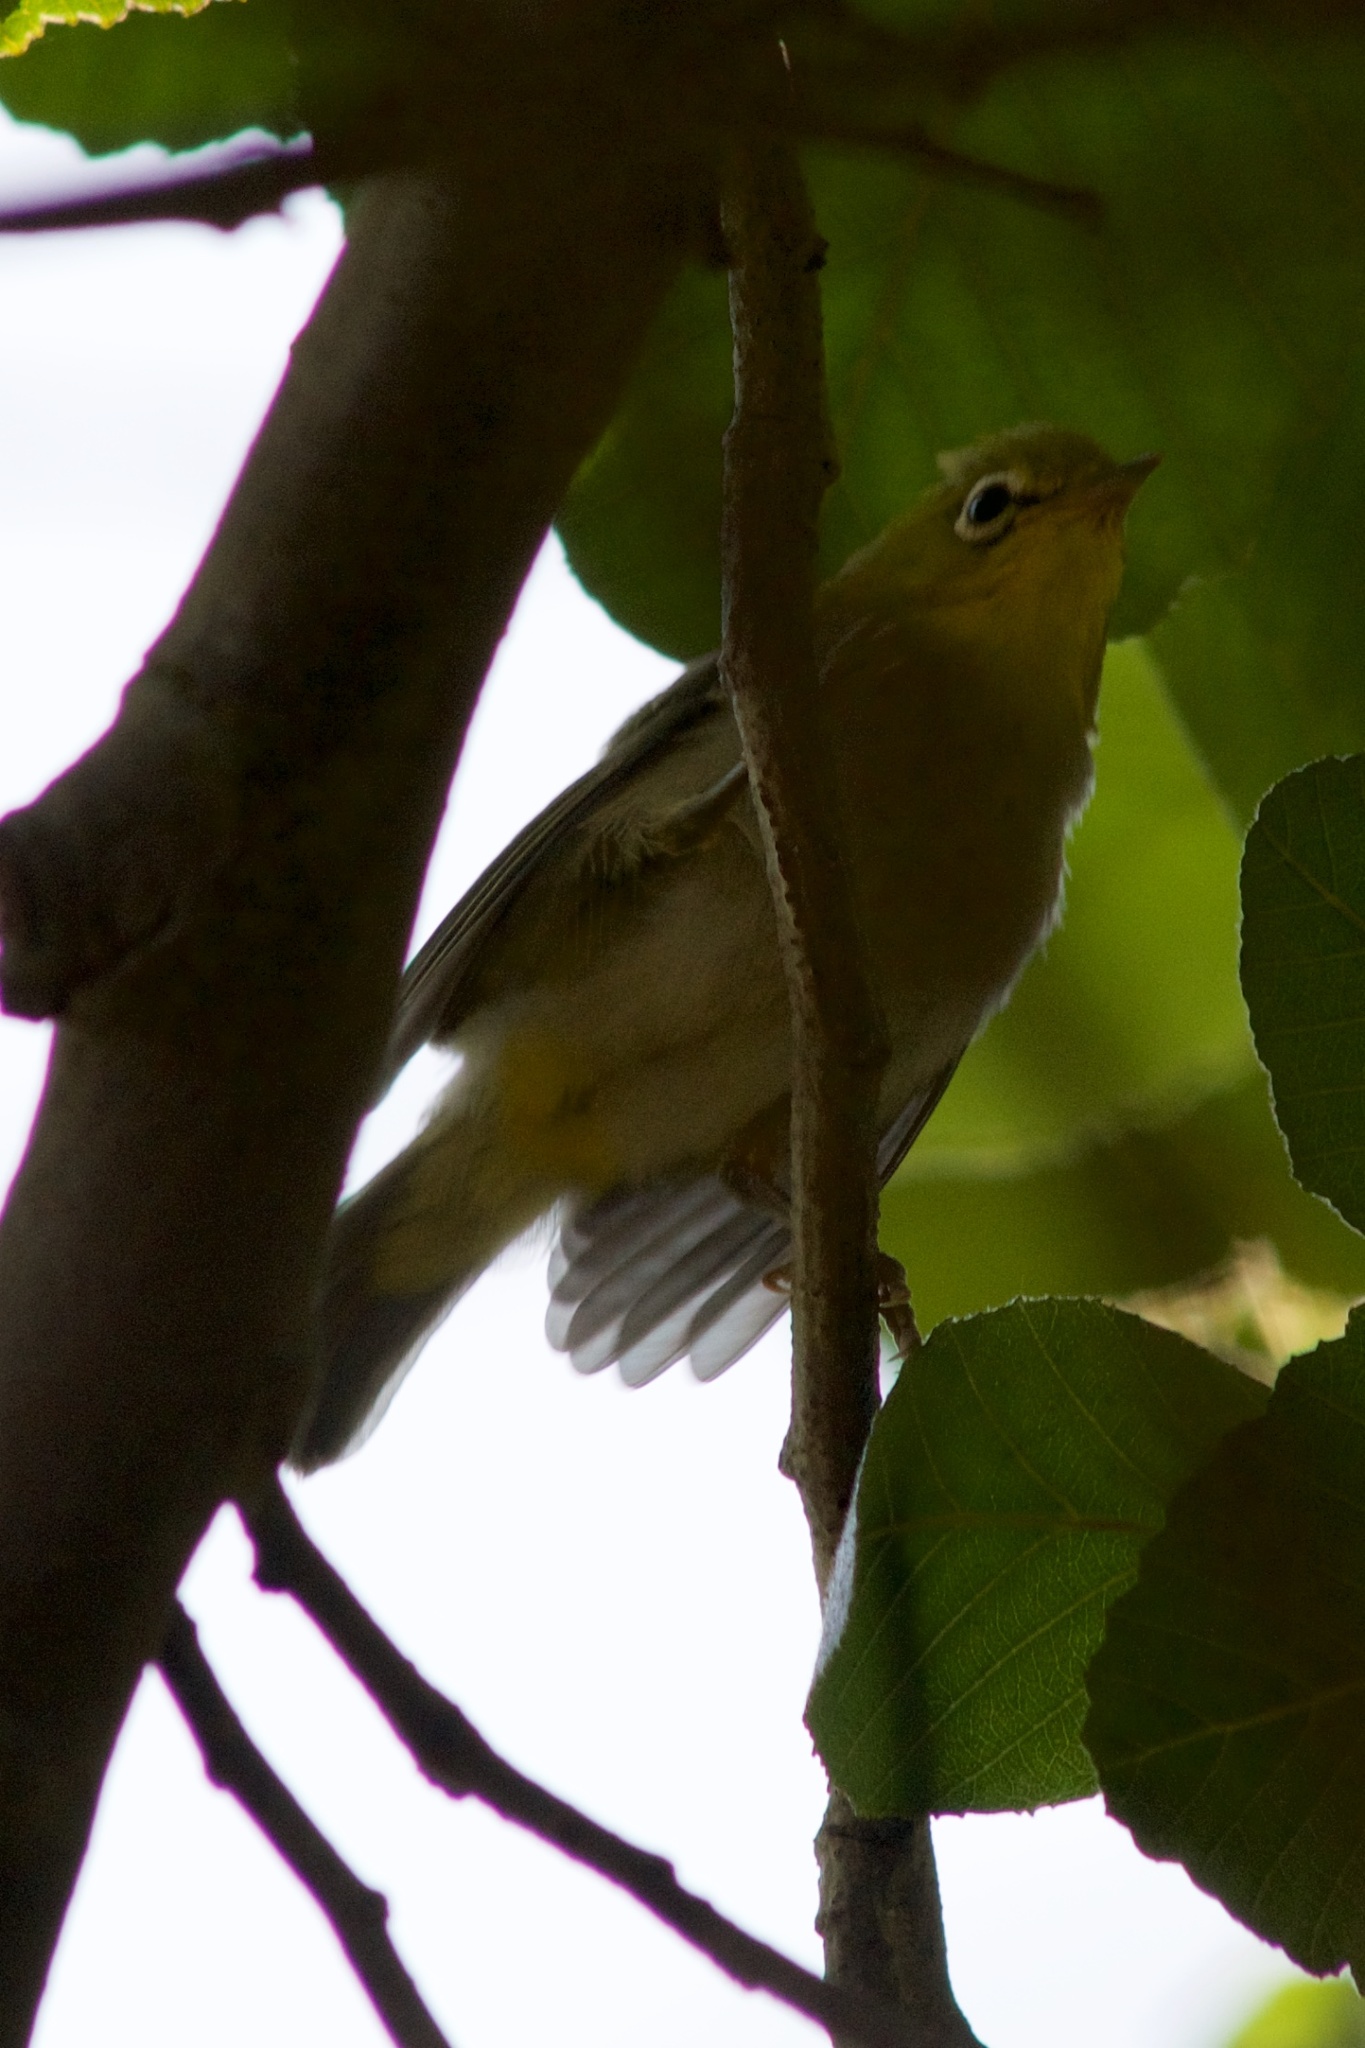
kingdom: Animalia
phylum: Chordata
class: Aves
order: Passeriformes
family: Zosteropidae
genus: Zosterops
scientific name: Zosterops simplex
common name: Swinhoe's white-eye
